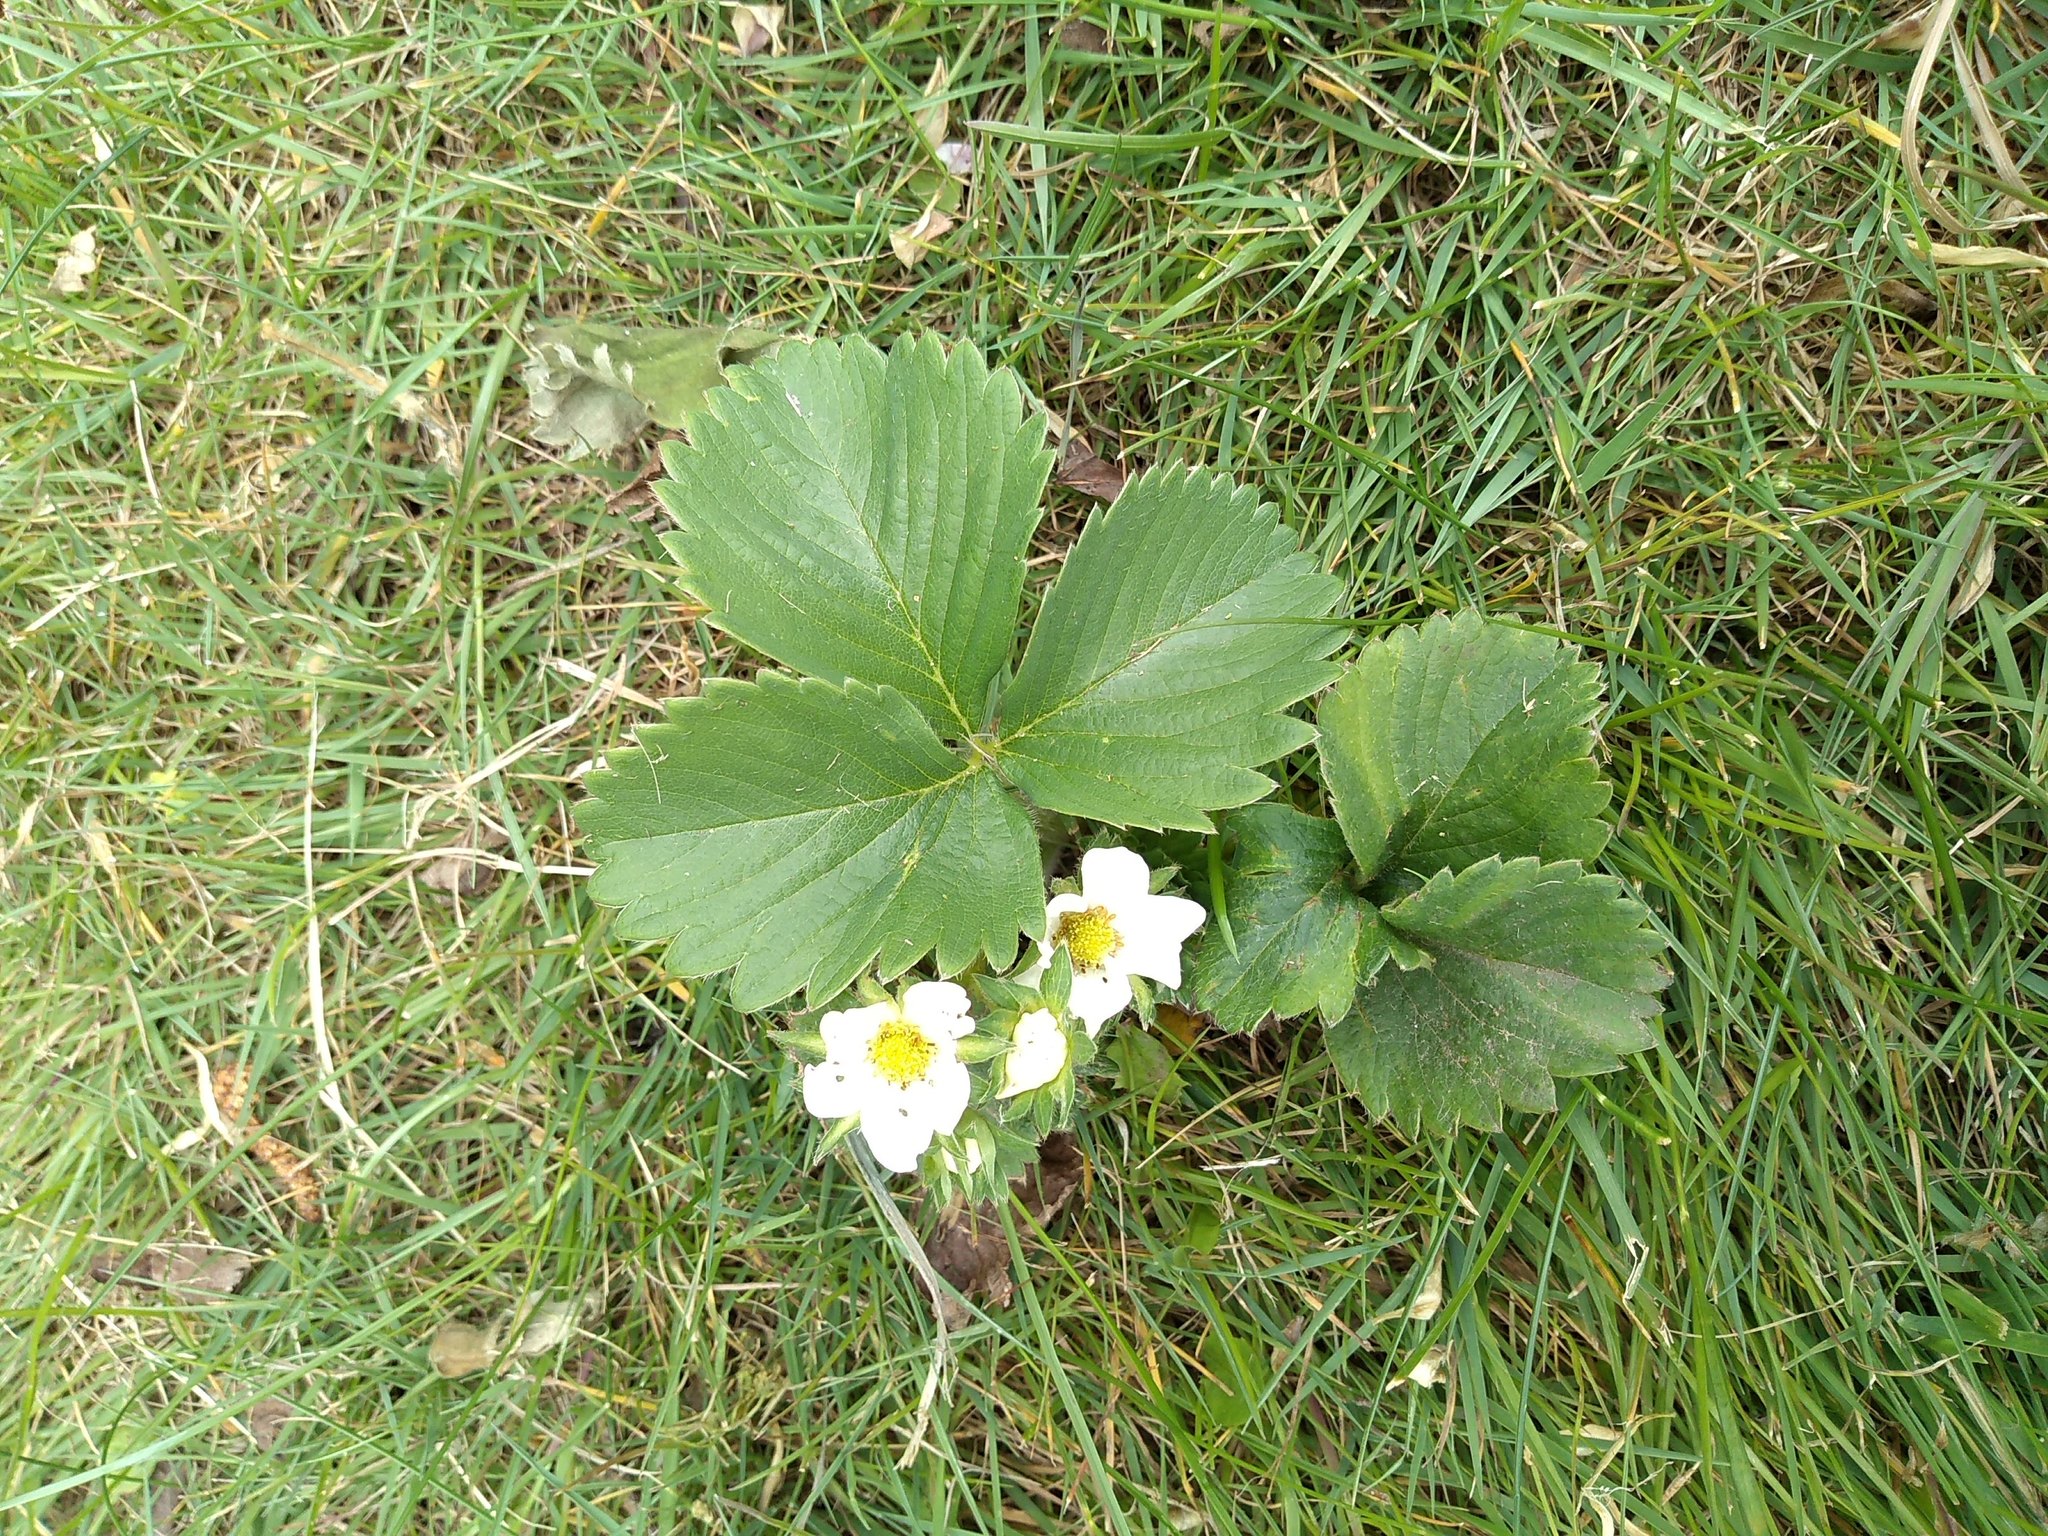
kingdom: Plantae
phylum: Tracheophyta
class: Magnoliopsida
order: Rosales
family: Rosaceae
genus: Fragaria
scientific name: Fragaria ananassa
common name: Garden strawberry
